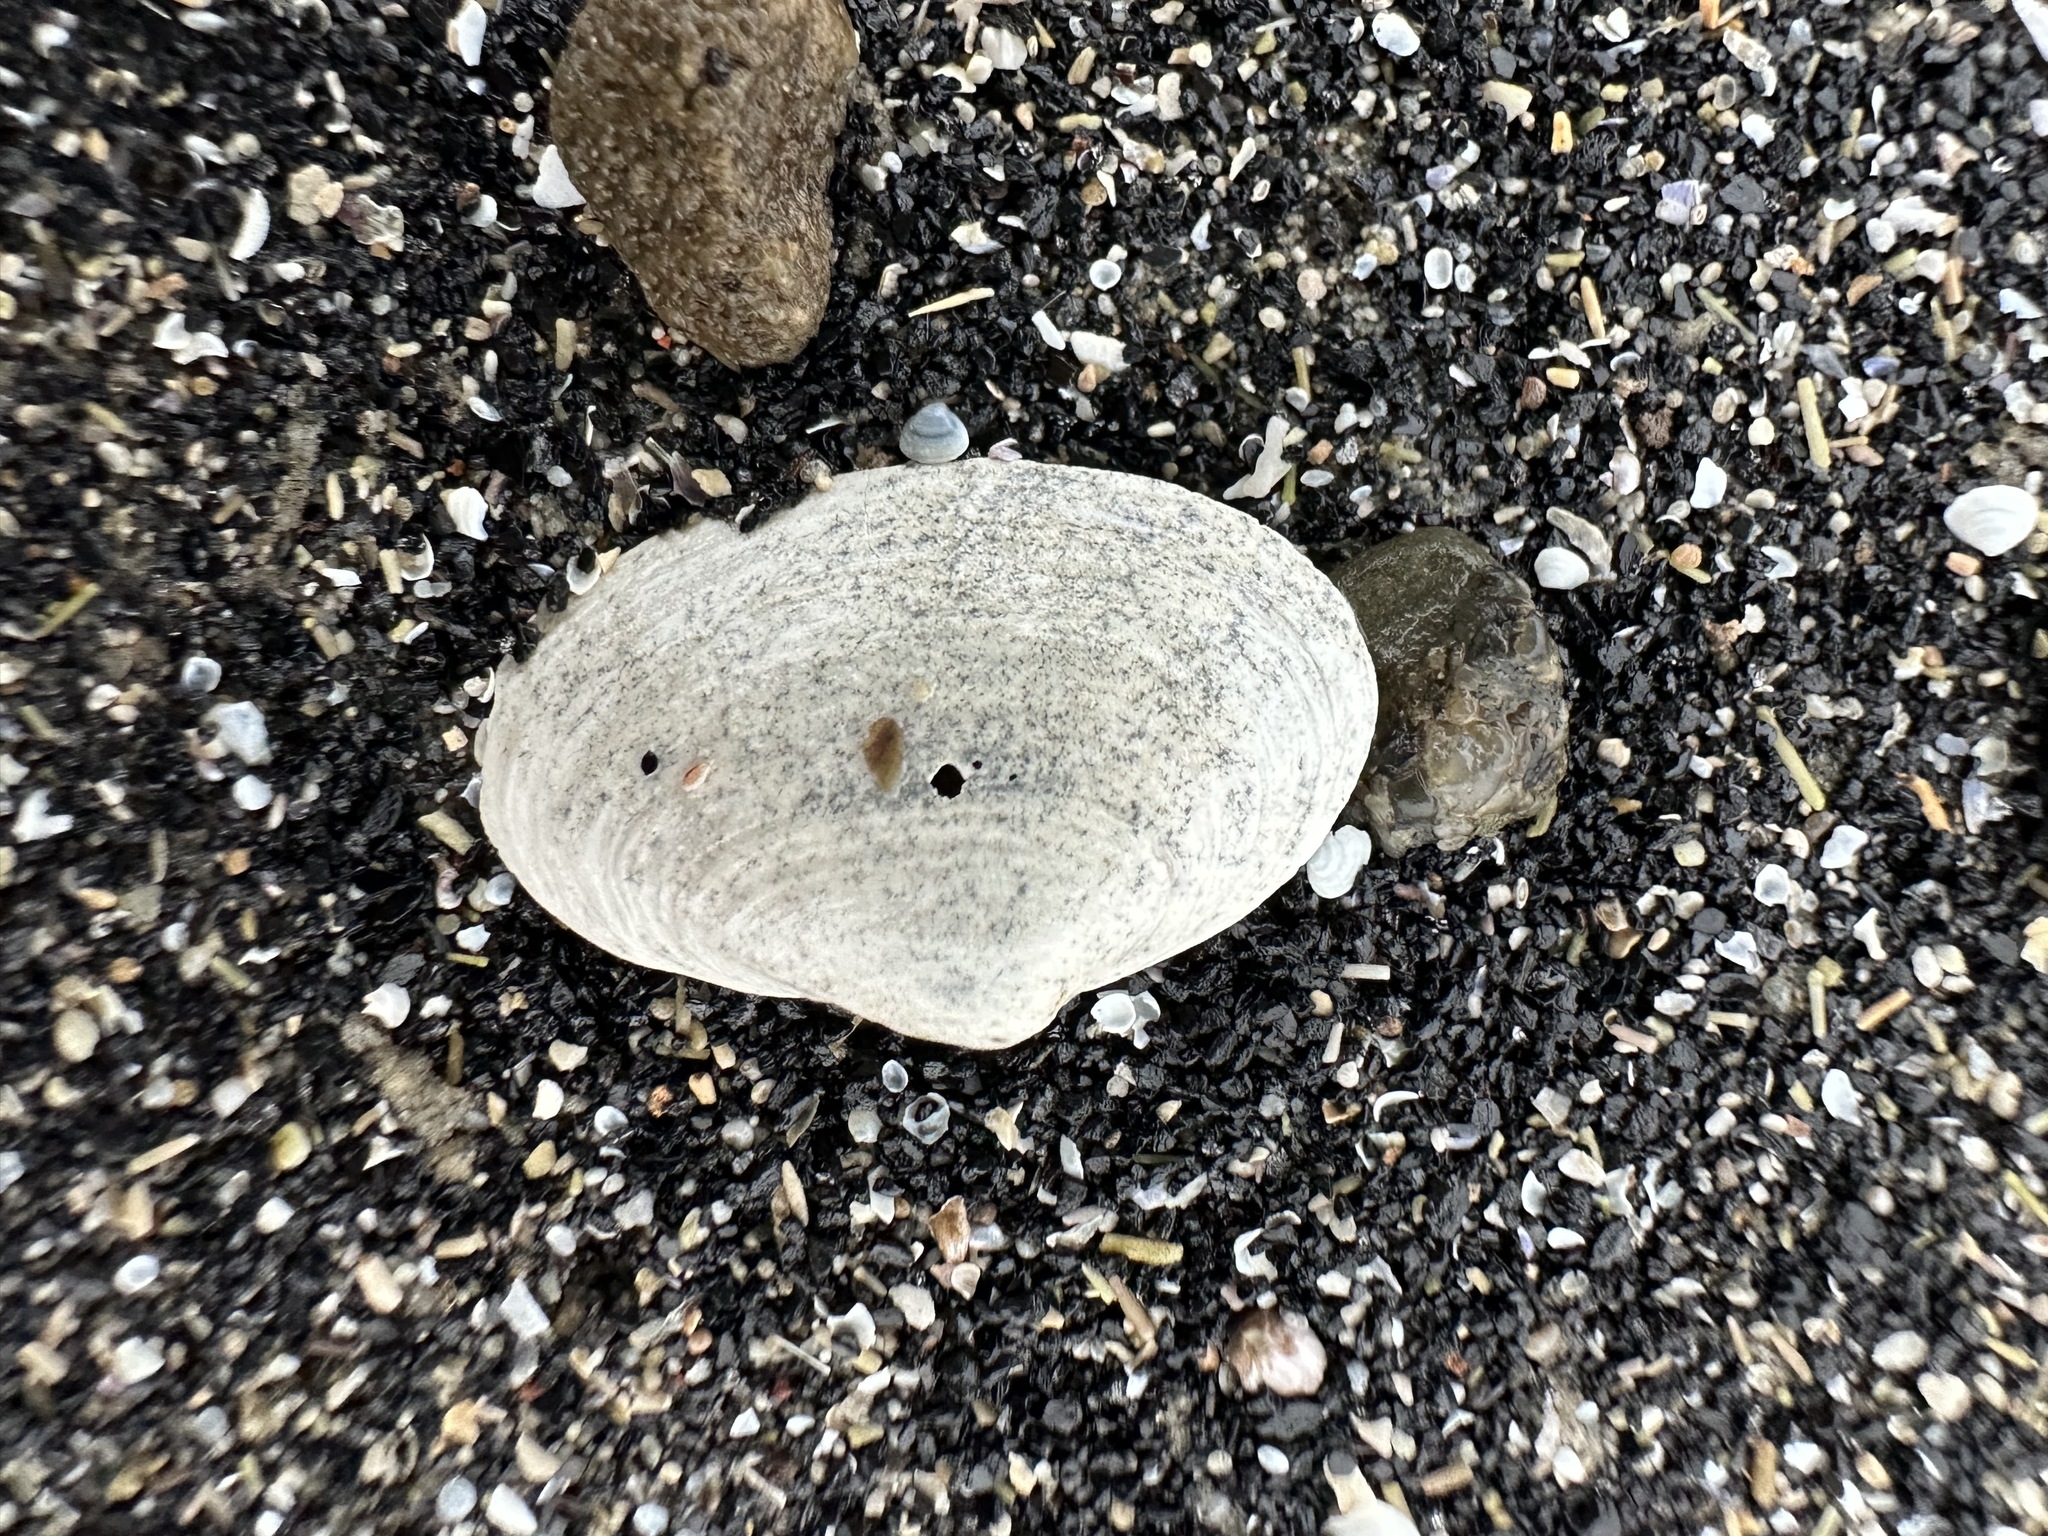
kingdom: Animalia
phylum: Mollusca
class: Bivalvia
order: Myida
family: Myidae
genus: Mya
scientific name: Mya arenaria
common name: Soft-shelled clam
